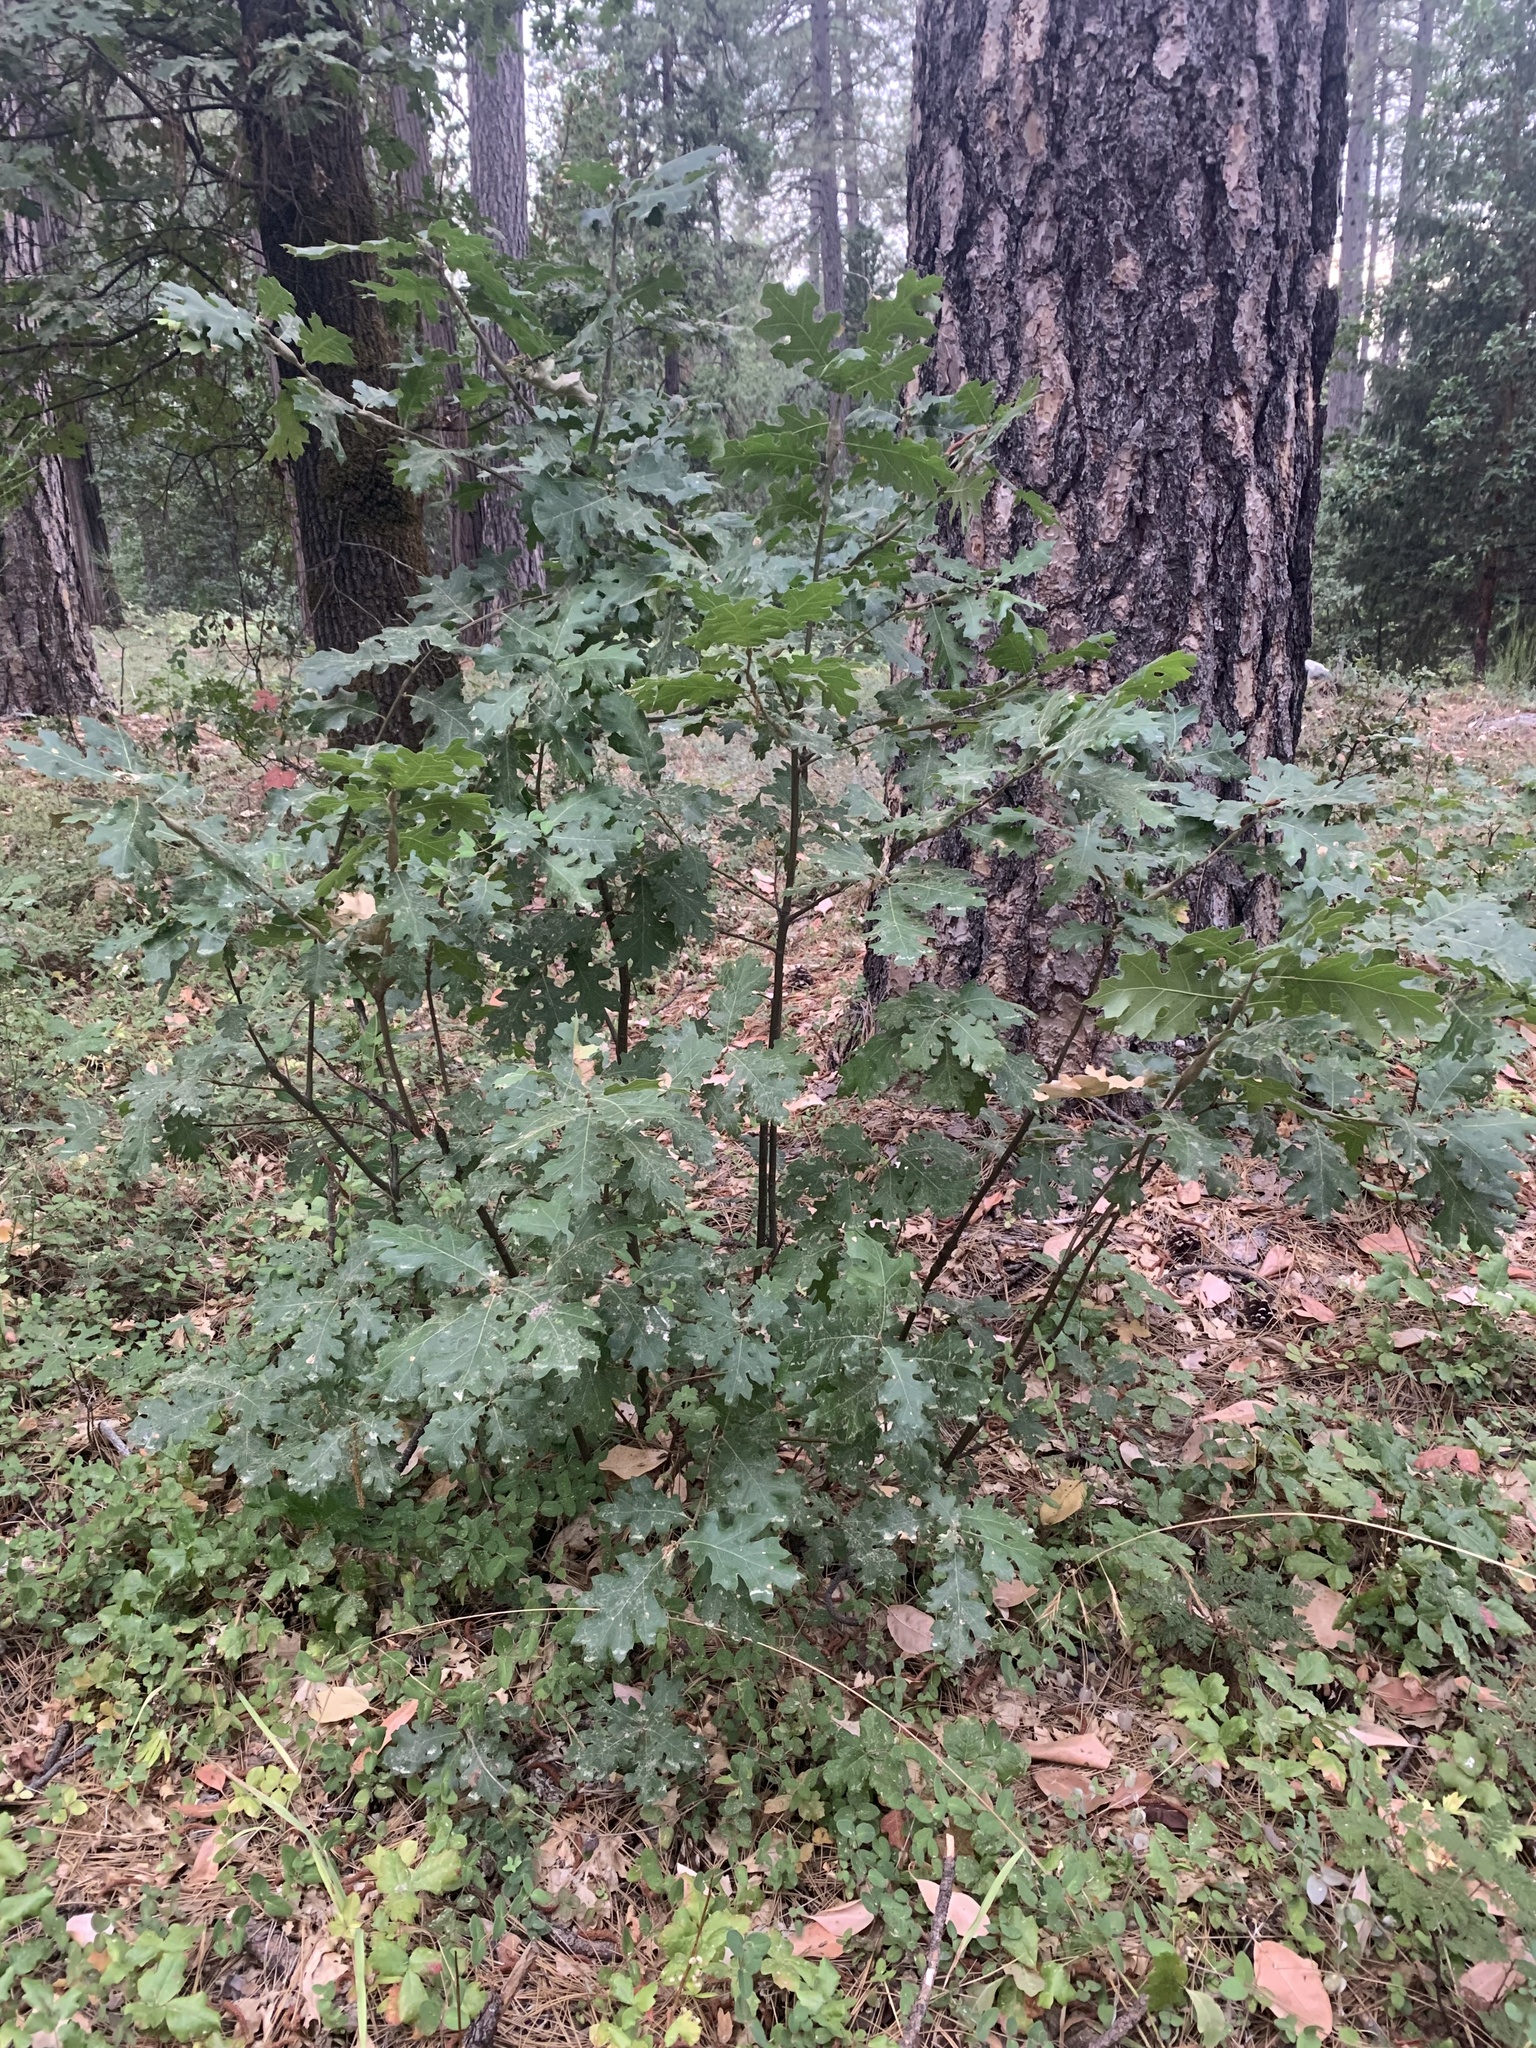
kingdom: Plantae
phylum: Tracheophyta
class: Magnoliopsida
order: Fagales
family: Fagaceae
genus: Quercus
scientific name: Quercus kelloggii
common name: California black oak
